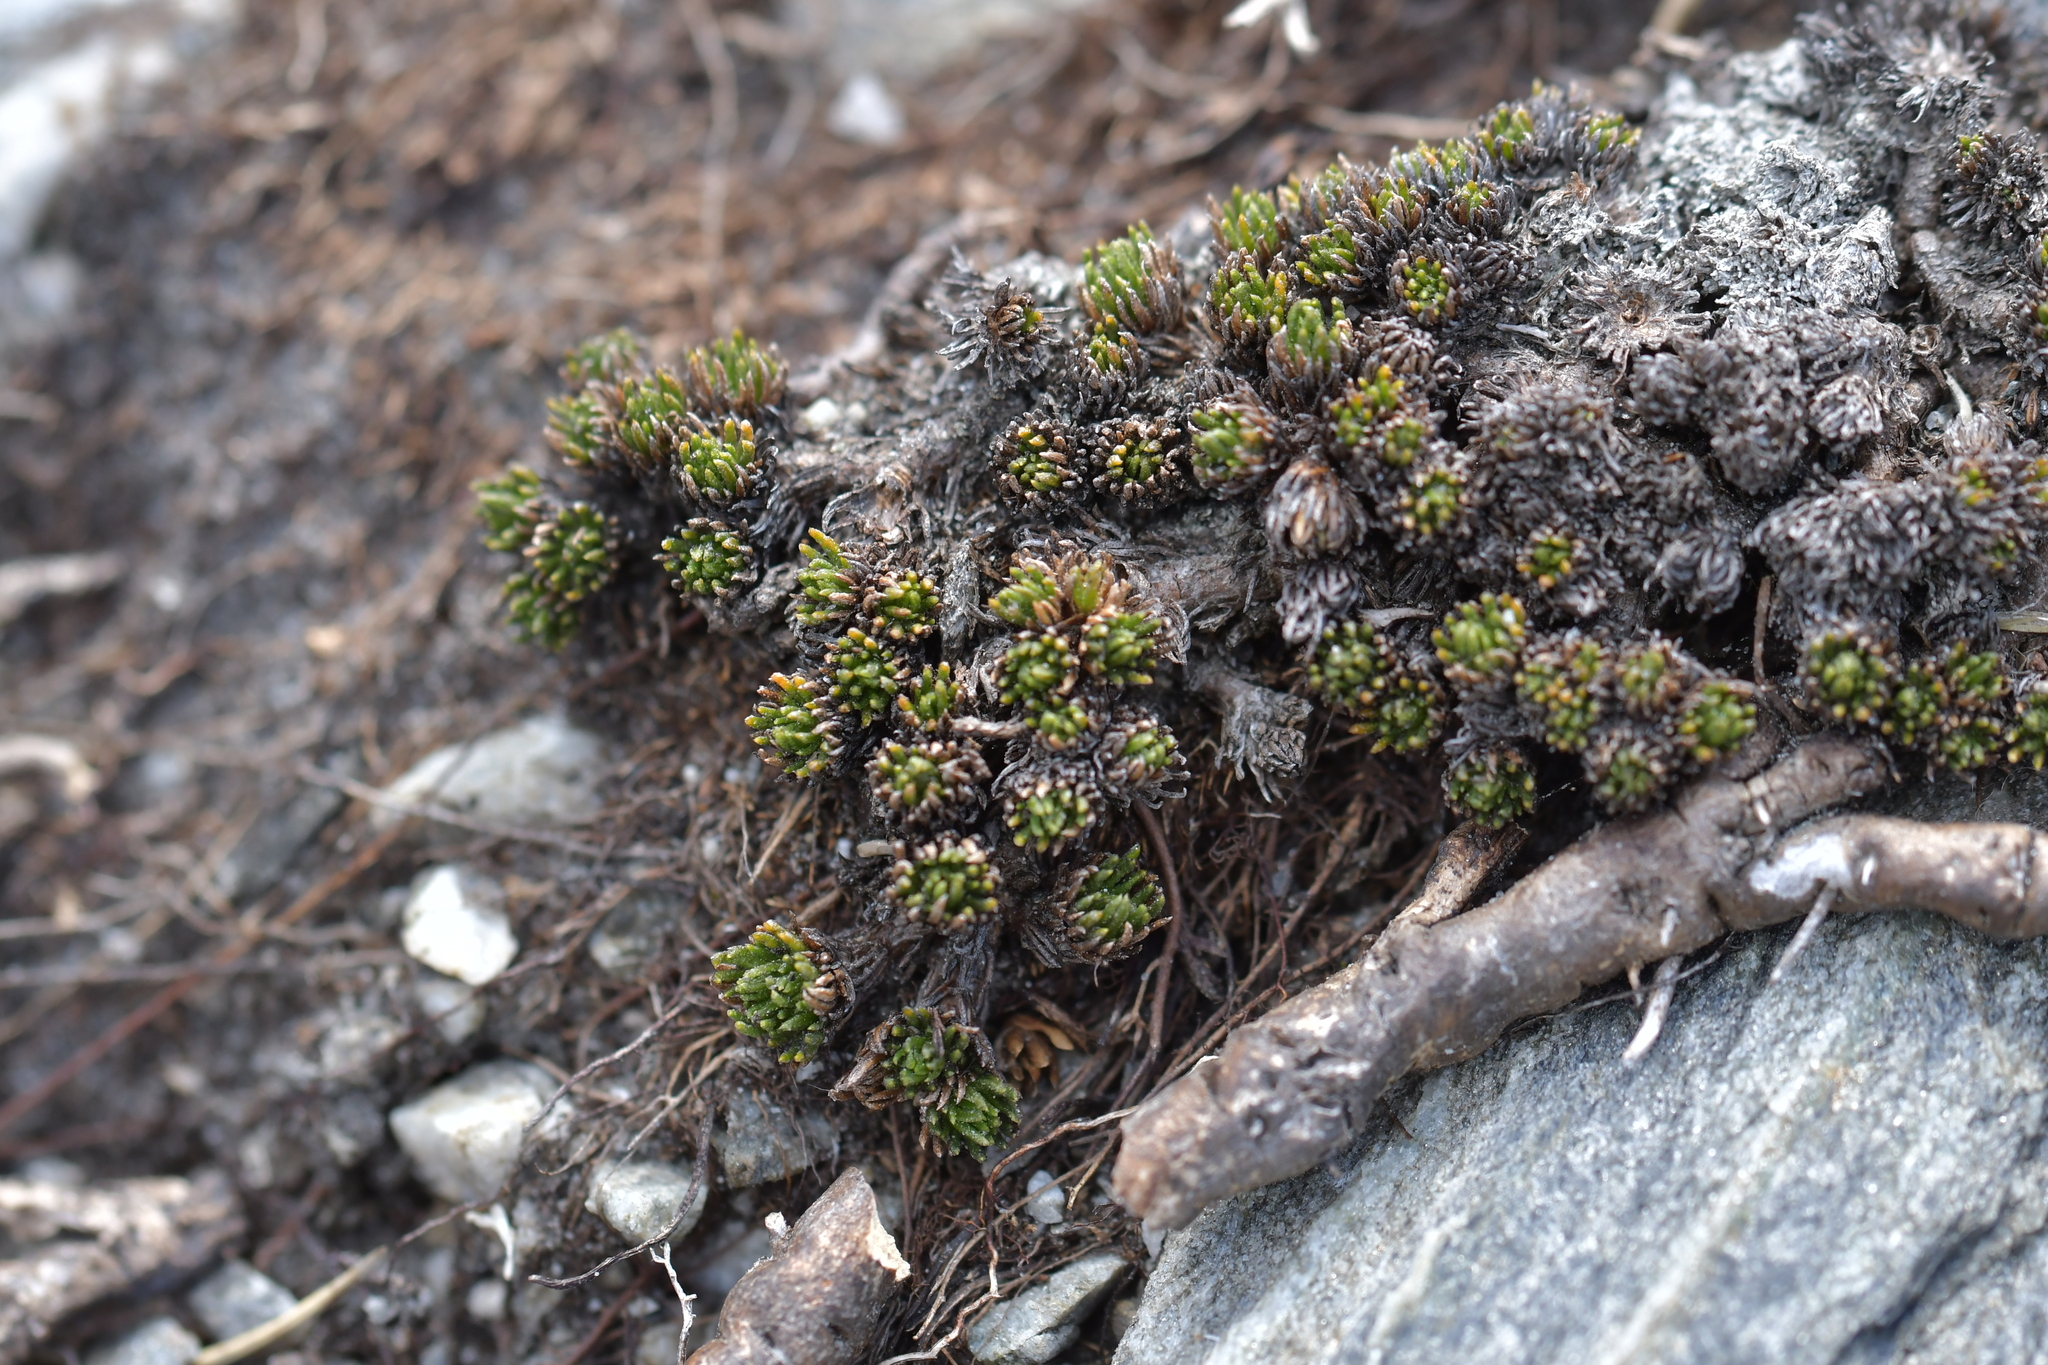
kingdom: Plantae
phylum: Tracheophyta
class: Magnoliopsida
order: Asterales
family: Asteraceae
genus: Leptinella
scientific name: Leptinella goyenii
